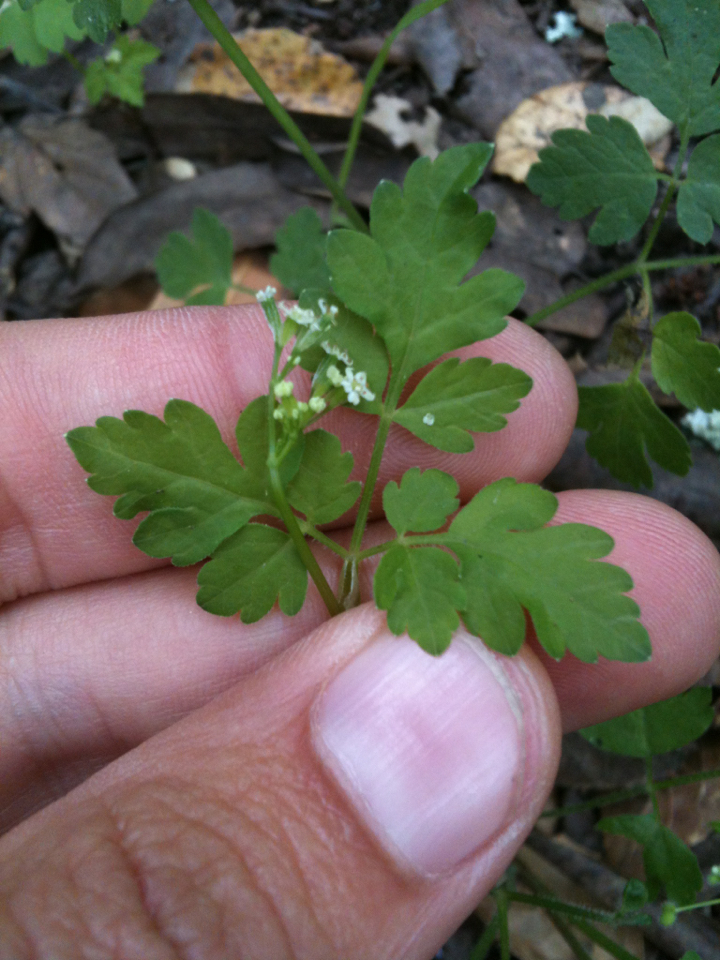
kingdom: Plantae
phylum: Tracheophyta
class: Magnoliopsida
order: Apiales
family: Apiaceae
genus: Osmorhiza
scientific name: Osmorhiza berteroi
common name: Mountain sweet cicely
